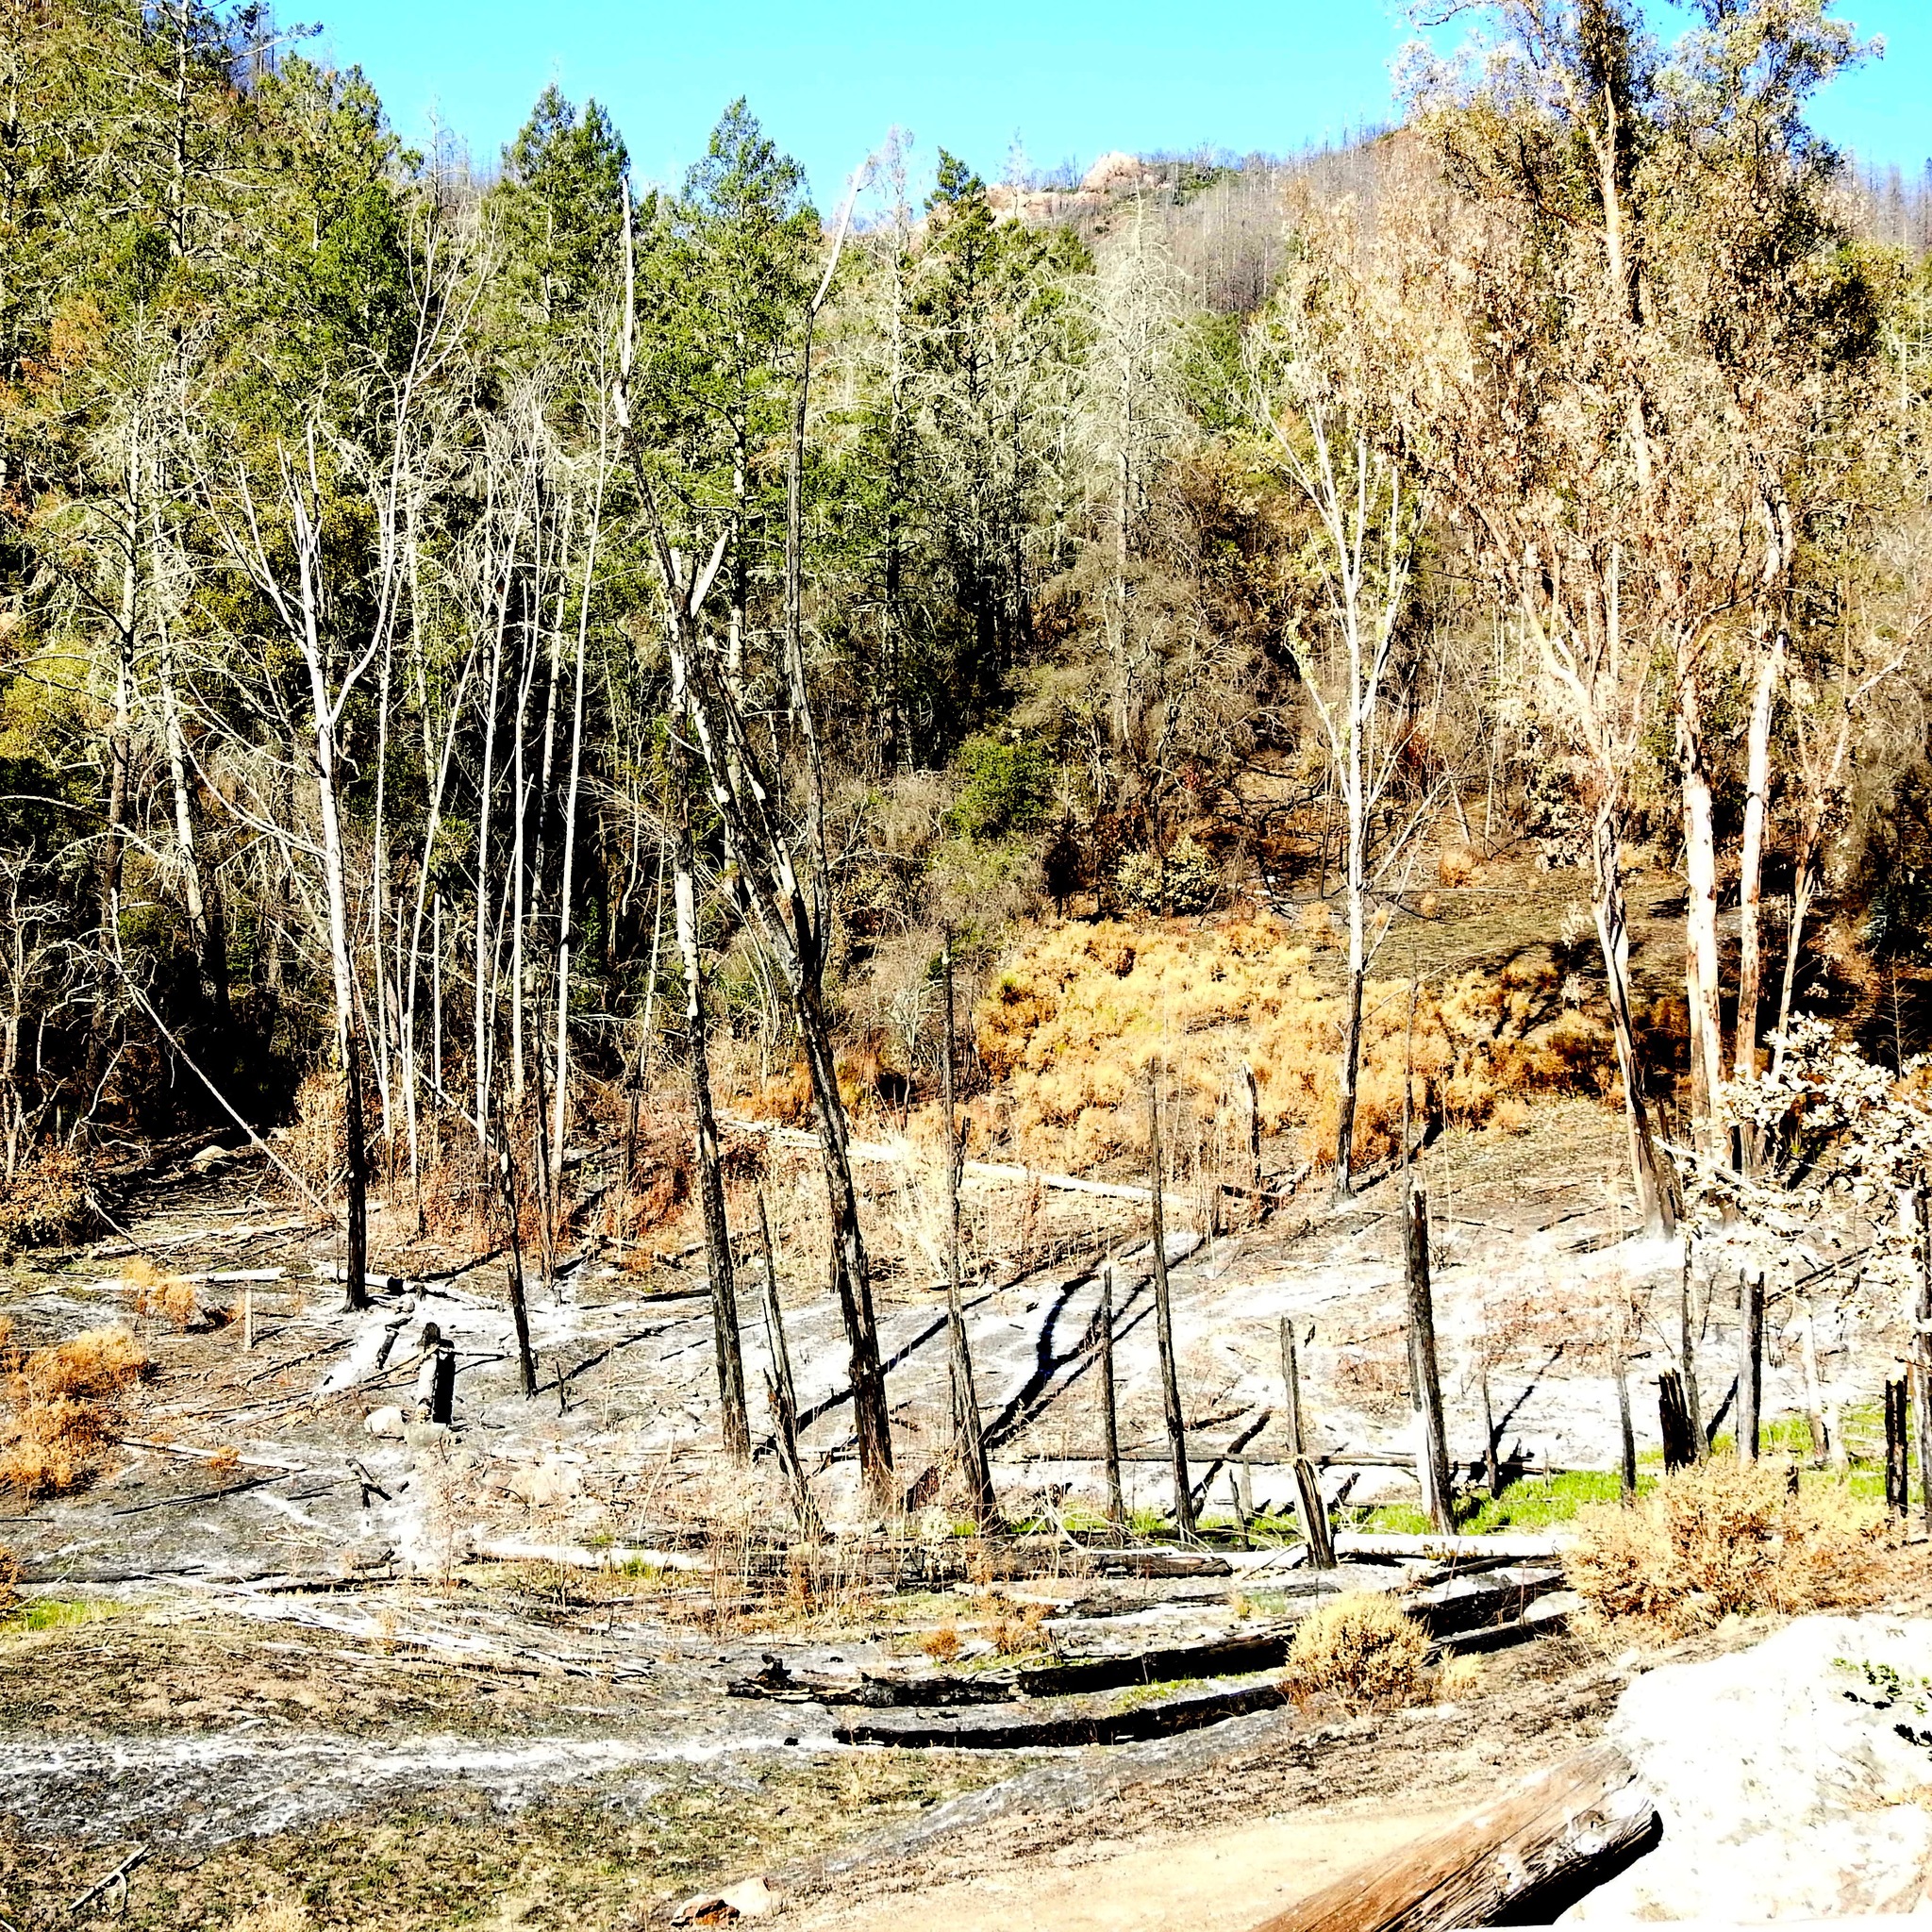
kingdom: Plantae
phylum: Tracheophyta
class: Magnoliopsida
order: Myrtales
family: Myrtaceae
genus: Eucalyptus
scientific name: Eucalyptus globulus
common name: Southern blue-gum
